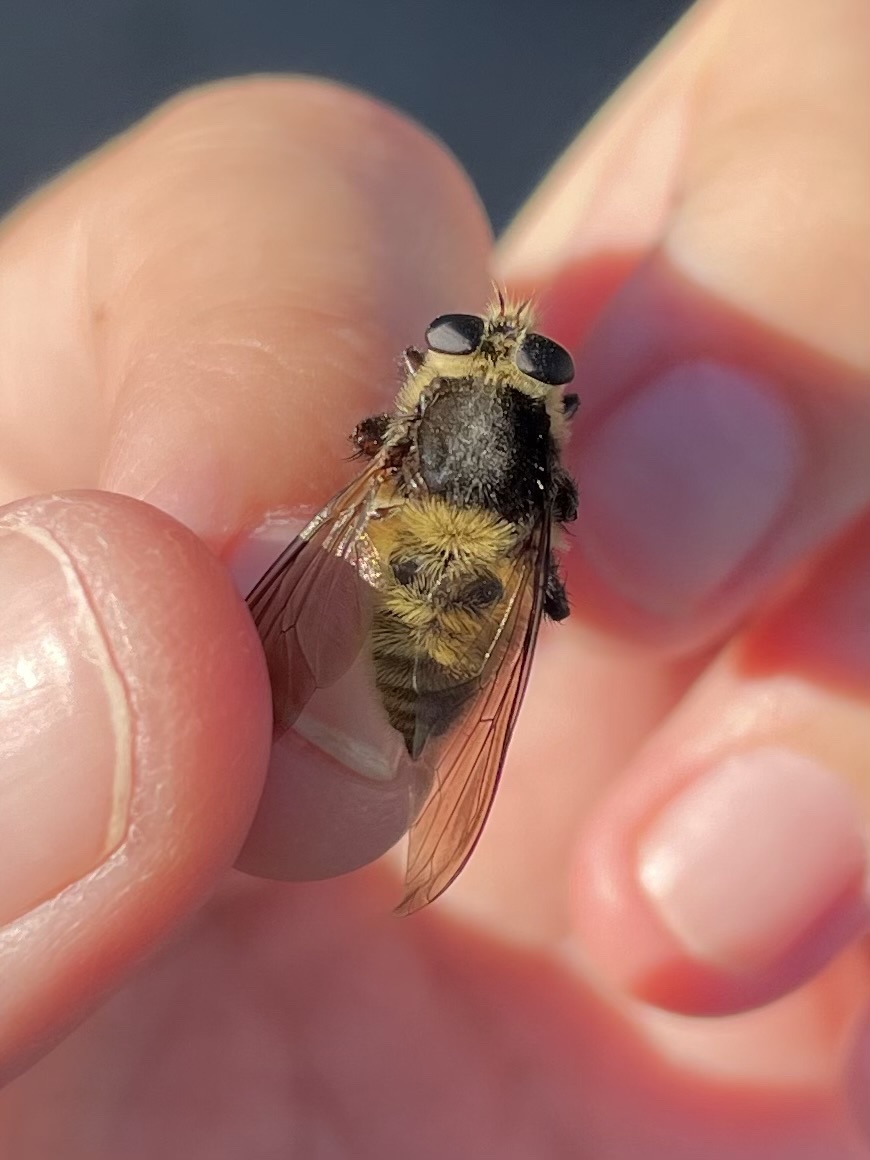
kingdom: Animalia
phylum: Arthropoda
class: Insecta
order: Diptera
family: Asilidae
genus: Mallophora
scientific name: Mallophora fautrix
